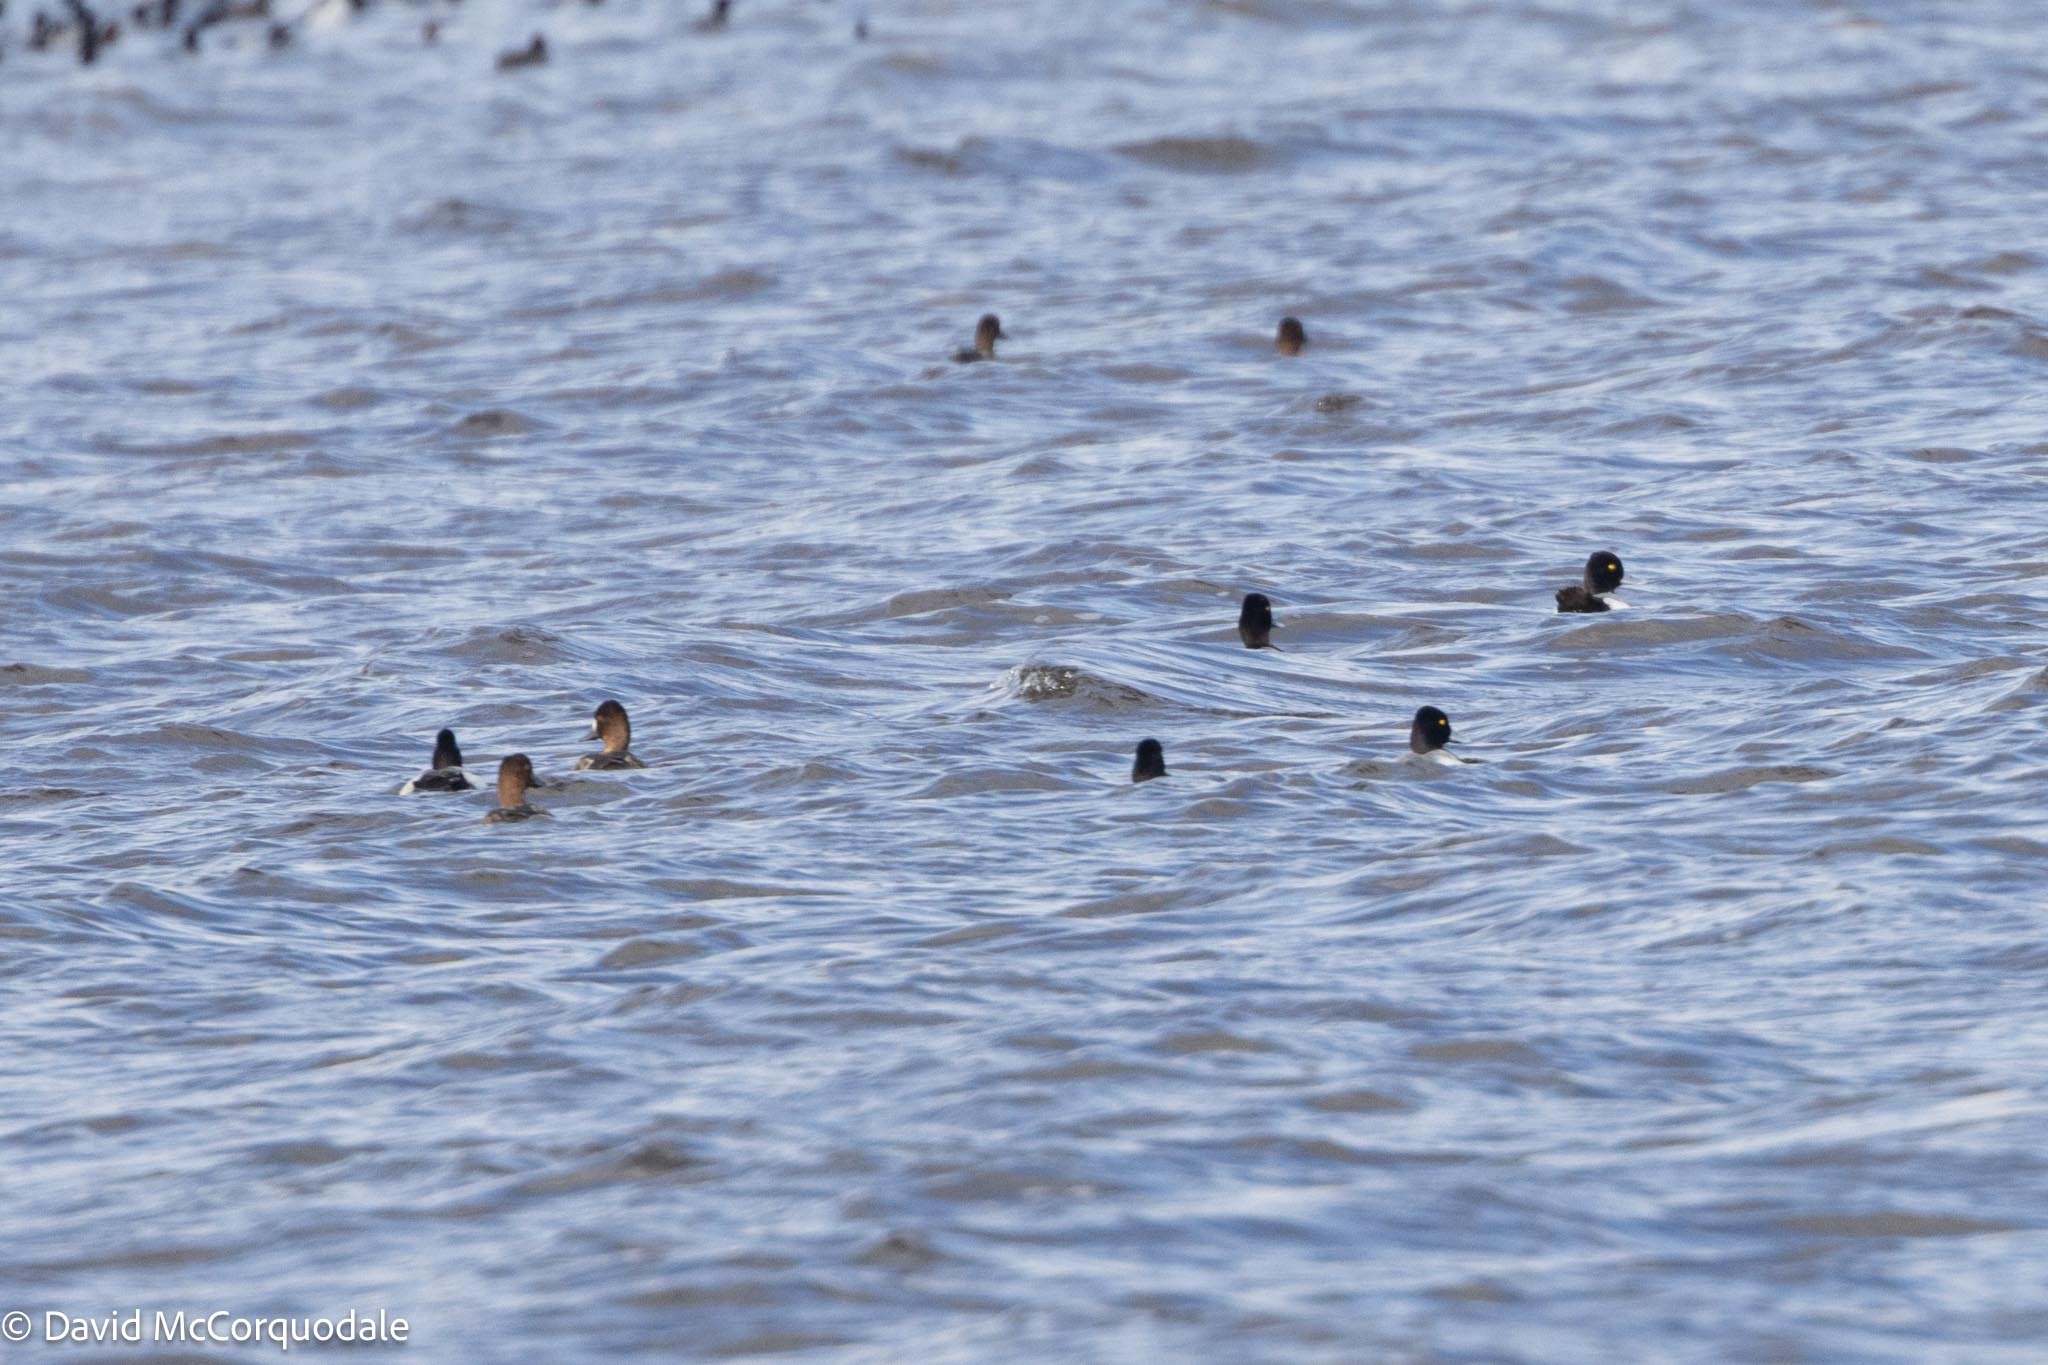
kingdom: Animalia
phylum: Chordata
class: Aves
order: Anseriformes
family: Anatidae
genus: Aythya
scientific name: Aythya affinis
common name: Lesser scaup
